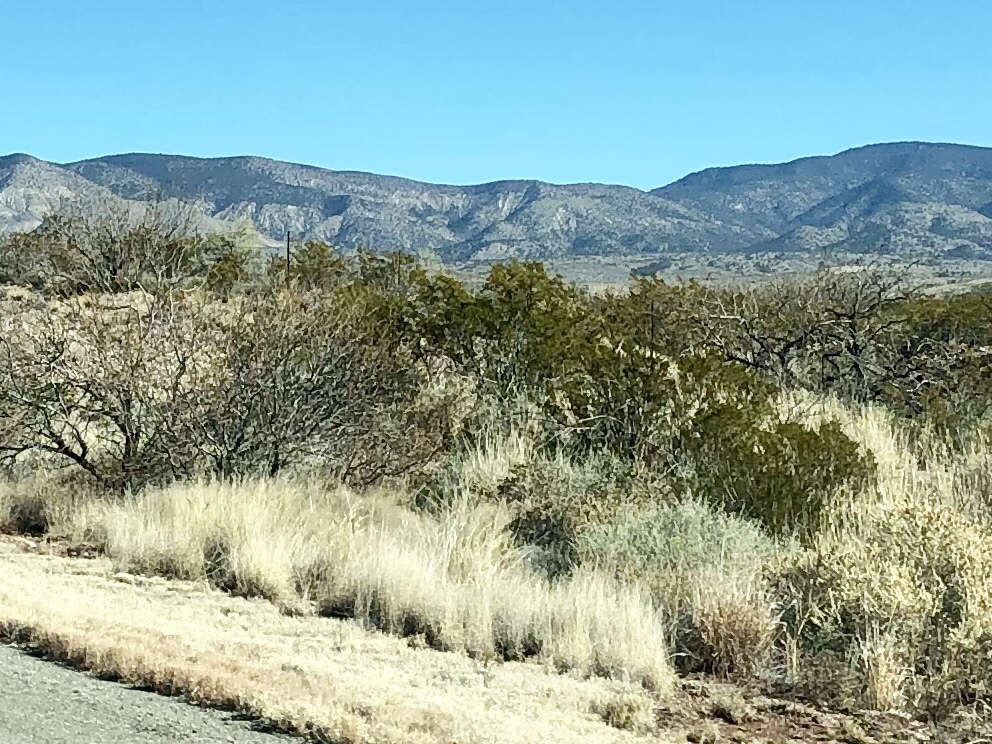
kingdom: Plantae
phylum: Tracheophyta
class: Magnoliopsida
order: Zygophyllales
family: Zygophyllaceae
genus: Larrea
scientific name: Larrea tridentata
